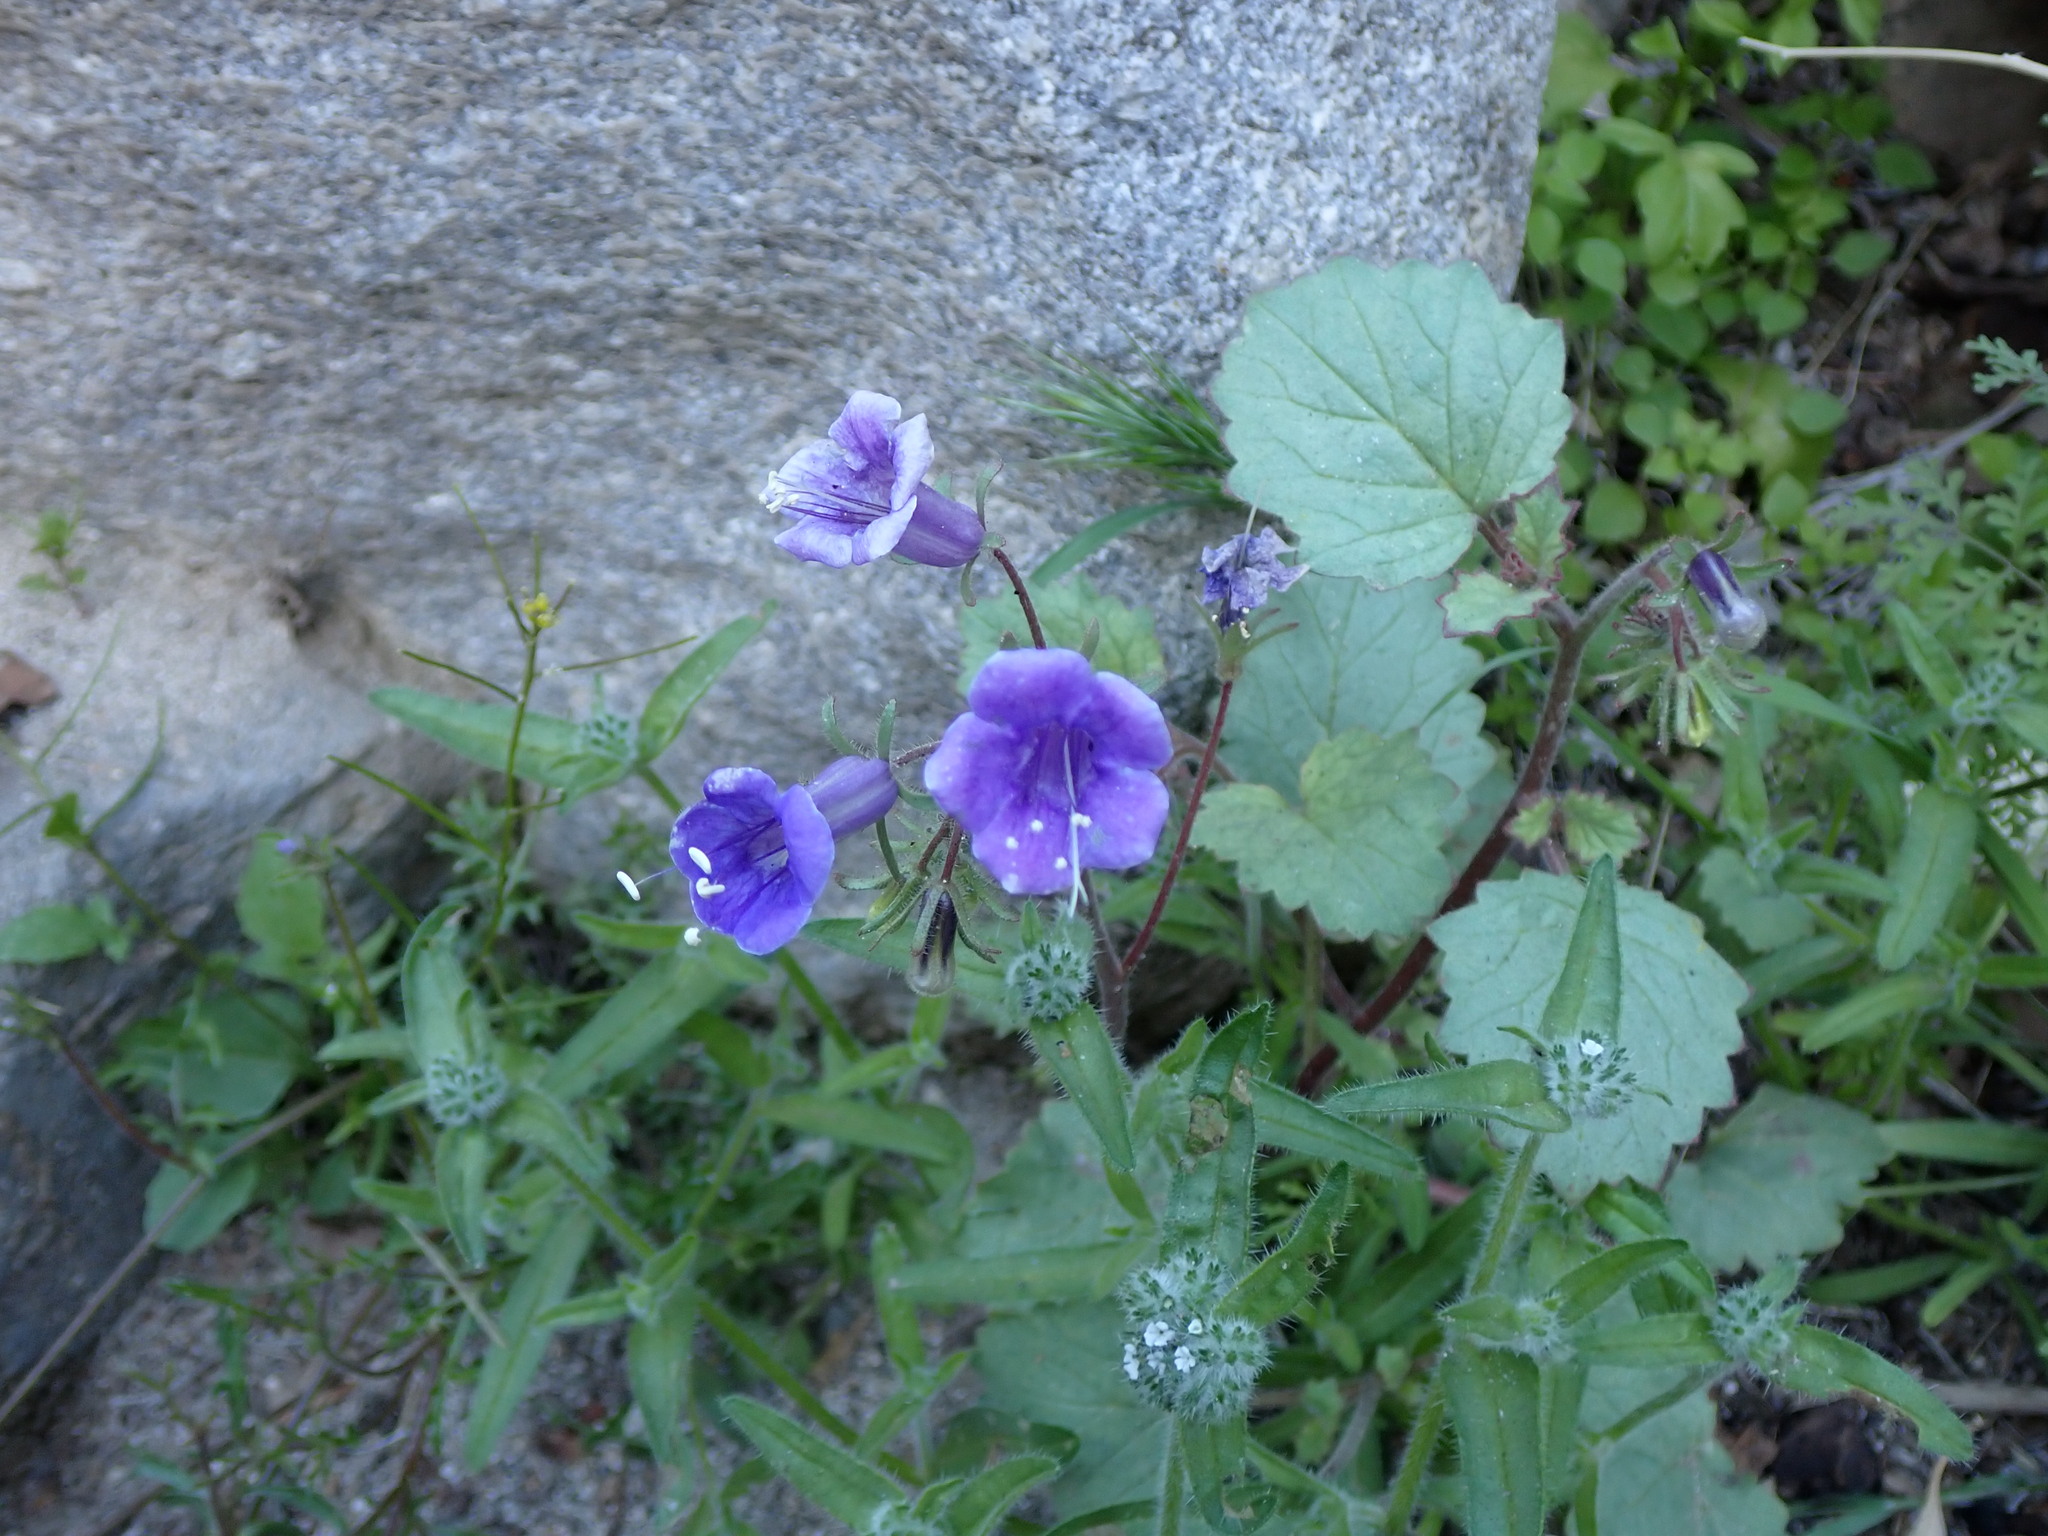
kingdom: Plantae
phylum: Tracheophyta
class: Magnoliopsida
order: Boraginales
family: Hydrophyllaceae
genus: Phacelia
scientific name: Phacelia minor
